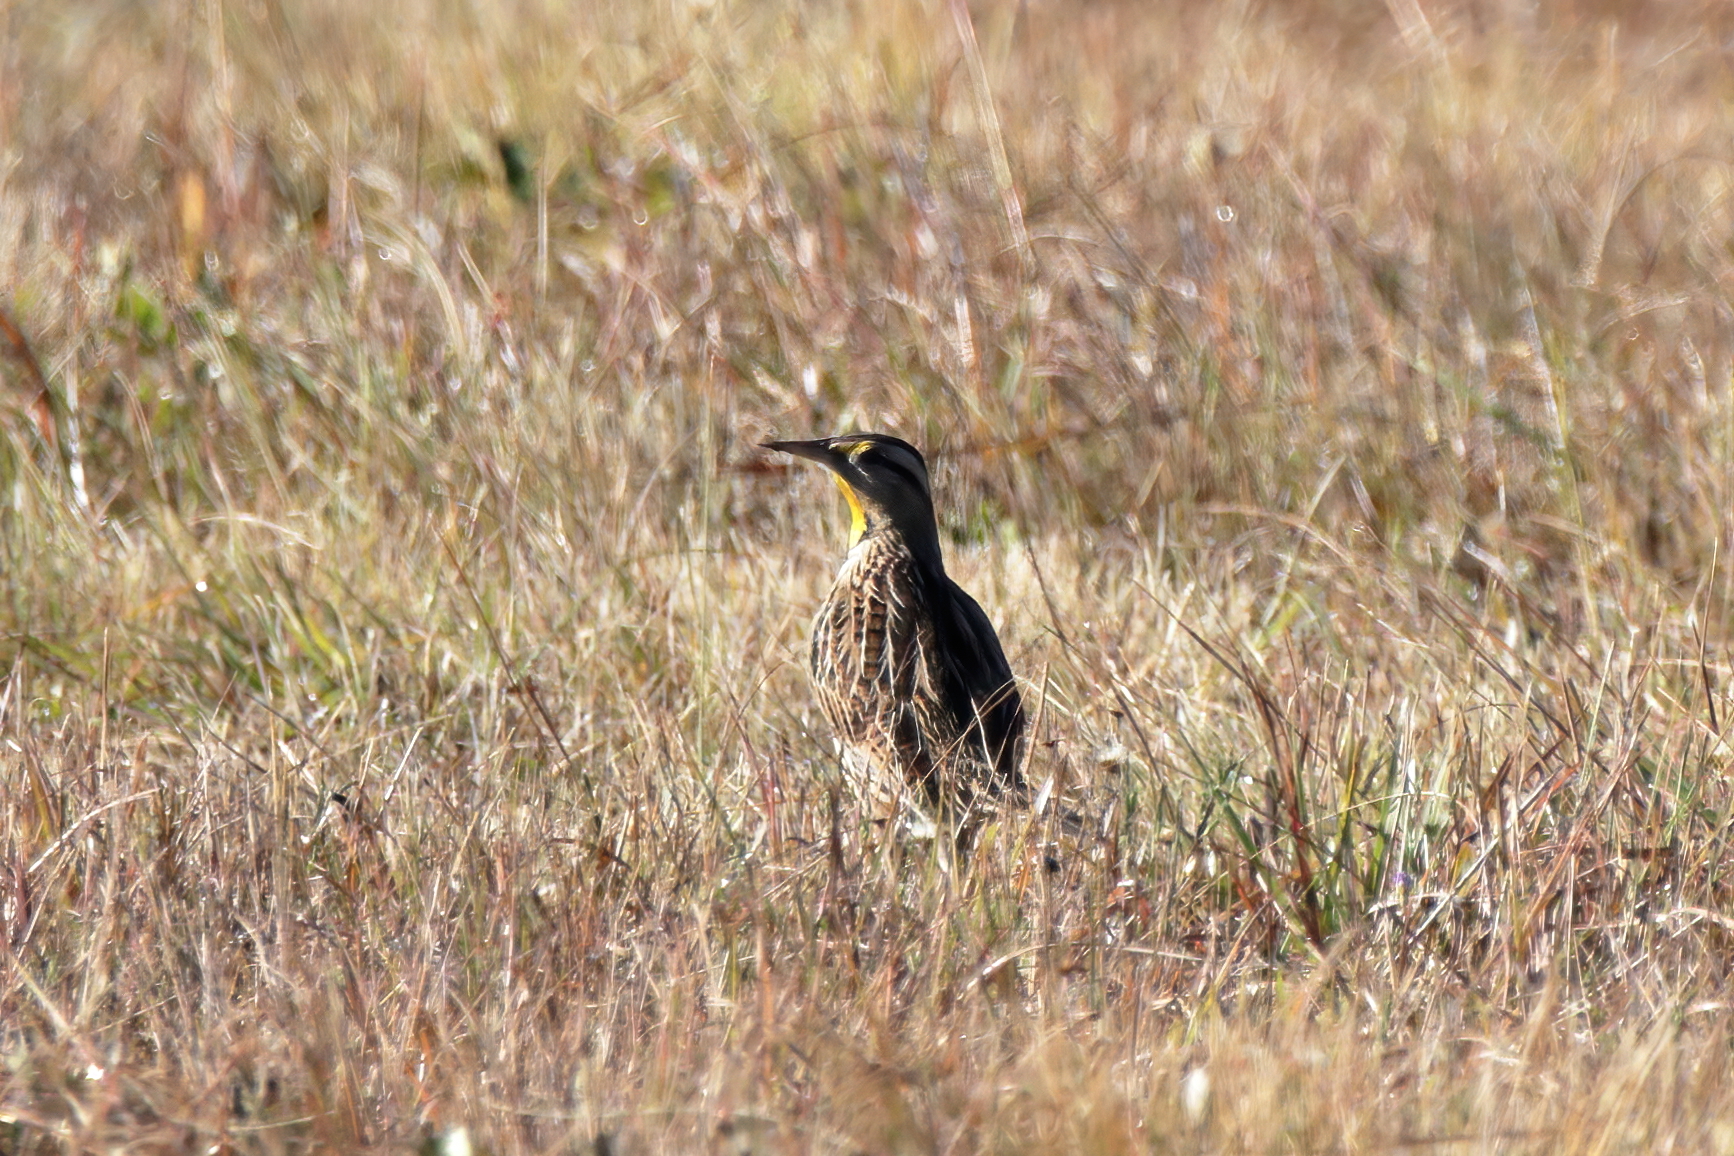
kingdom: Animalia
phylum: Chordata
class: Aves
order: Passeriformes
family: Icteridae
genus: Sturnella
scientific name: Sturnella magna
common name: Eastern meadowlark
